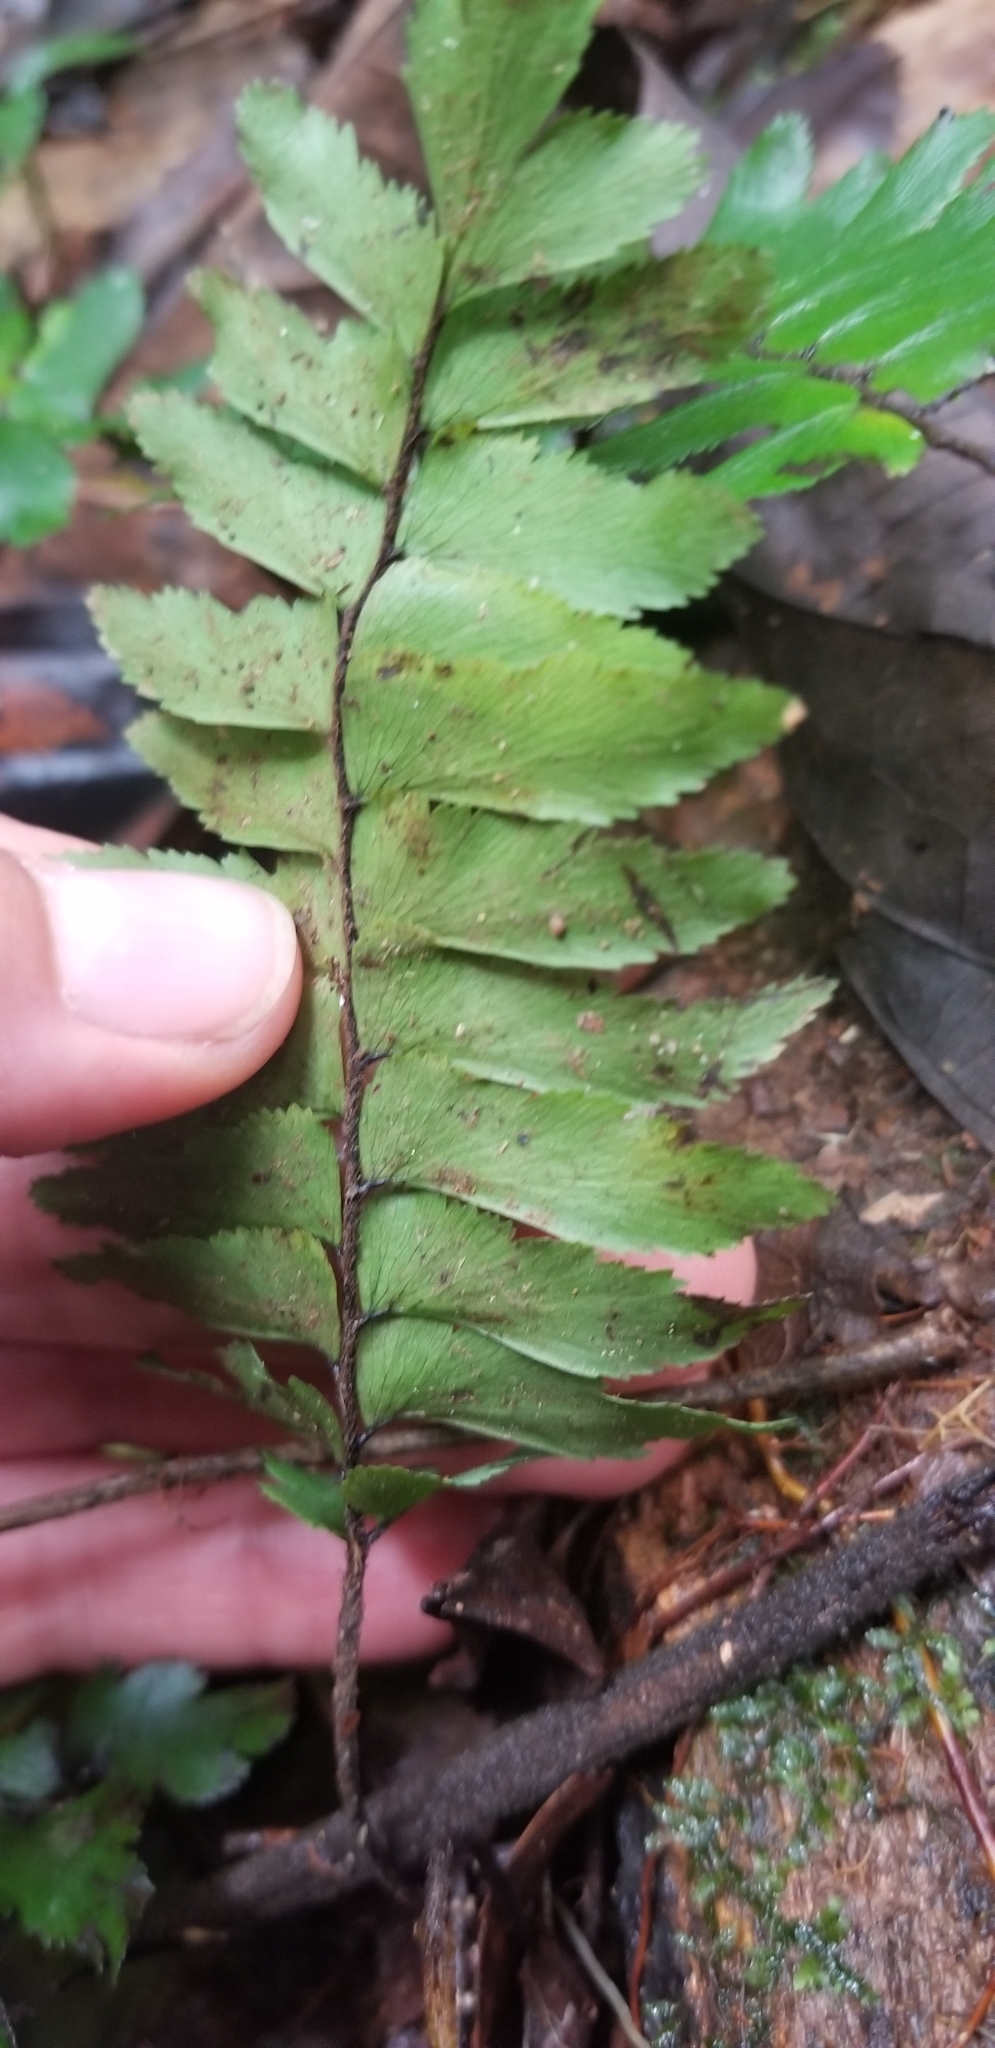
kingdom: Plantae
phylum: Tracheophyta
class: Polypodiopsida
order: Polypodiales
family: Pteridaceae
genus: Adiantum
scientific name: Adiantum obliquum
